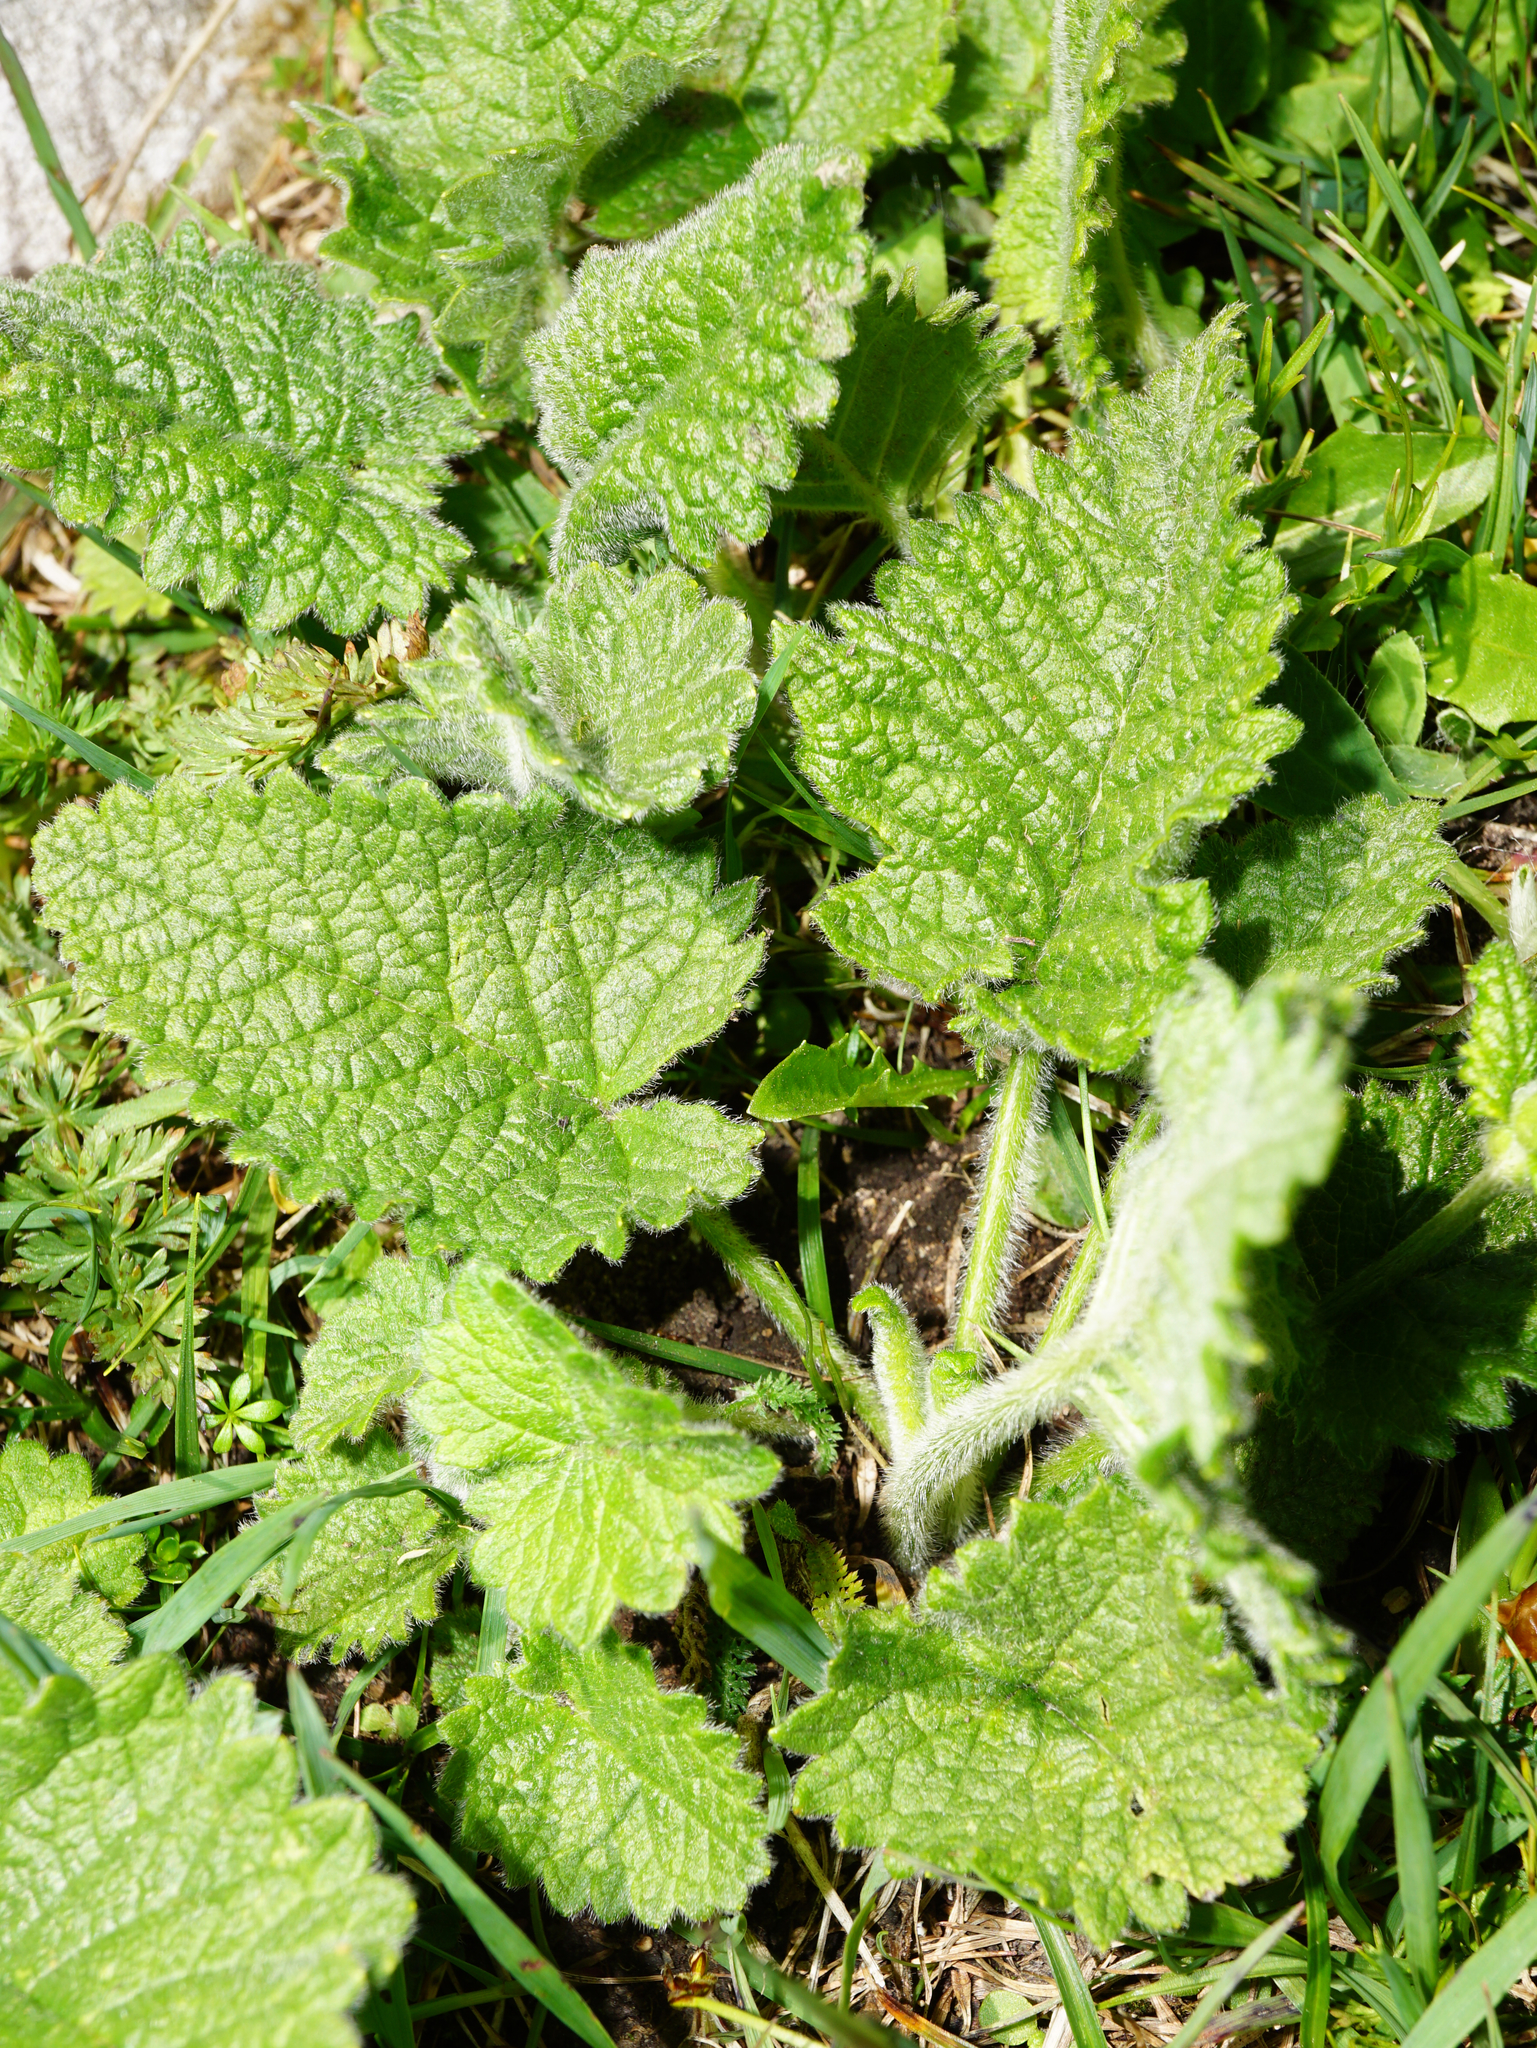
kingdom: Plantae
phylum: Tracheophyta
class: Magnoliopsida
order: Lamiales
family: Lamiaceae
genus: Betonica
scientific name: Betonica alopecuros
